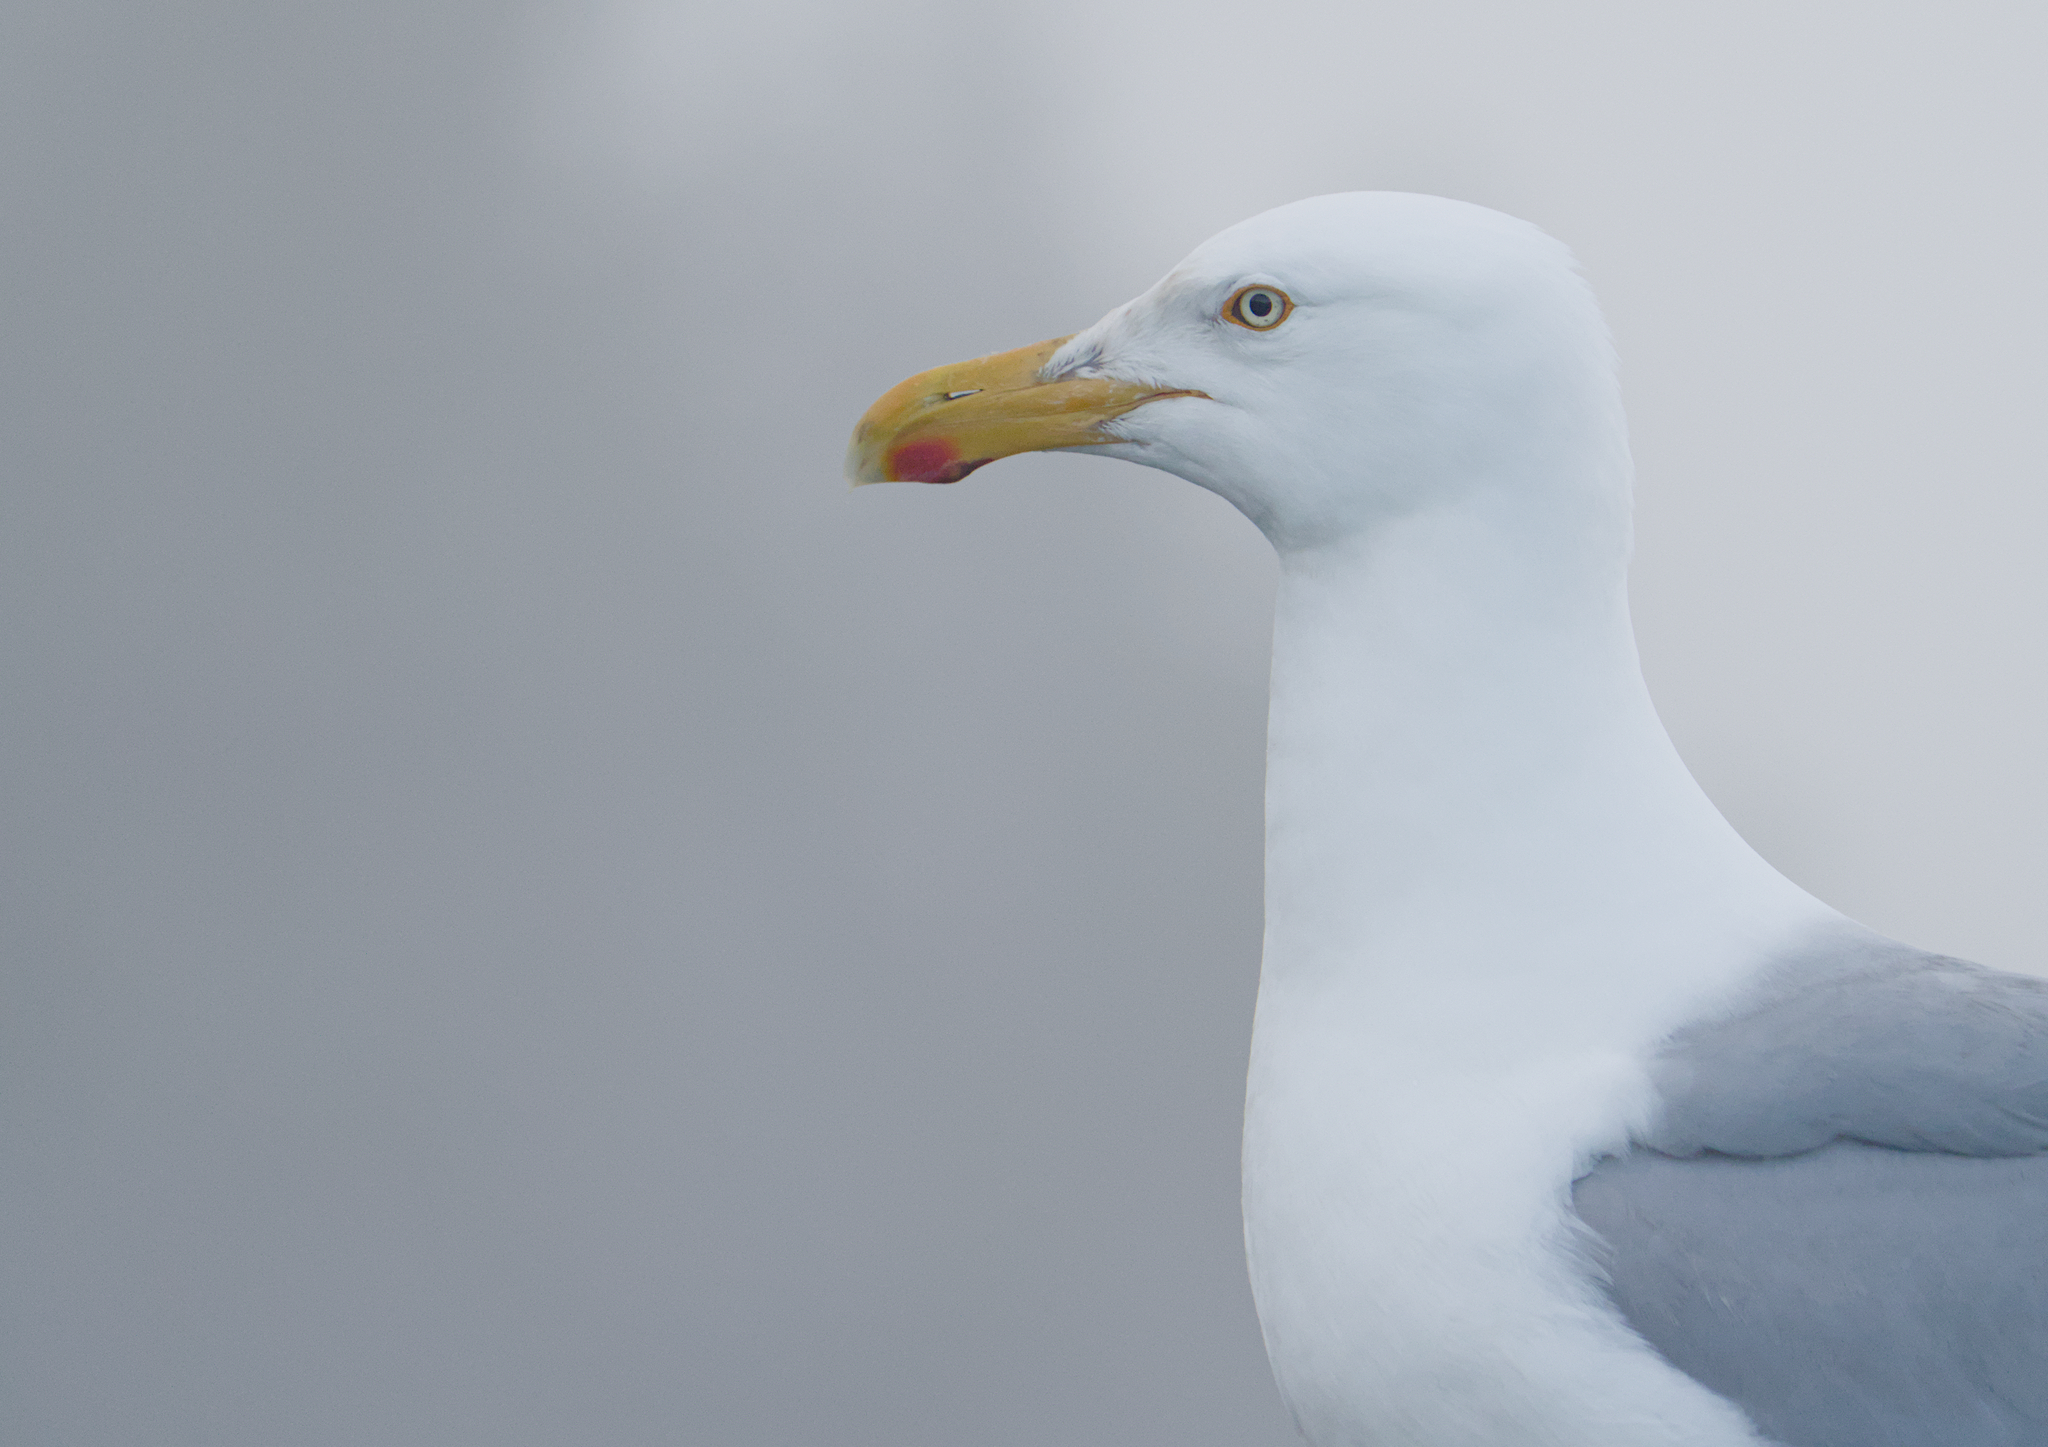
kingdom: Animalia
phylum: Chordata
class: Aves
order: Charadriiformes
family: Laridae
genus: Larus
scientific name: Larus argentatus
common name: Herring gull
